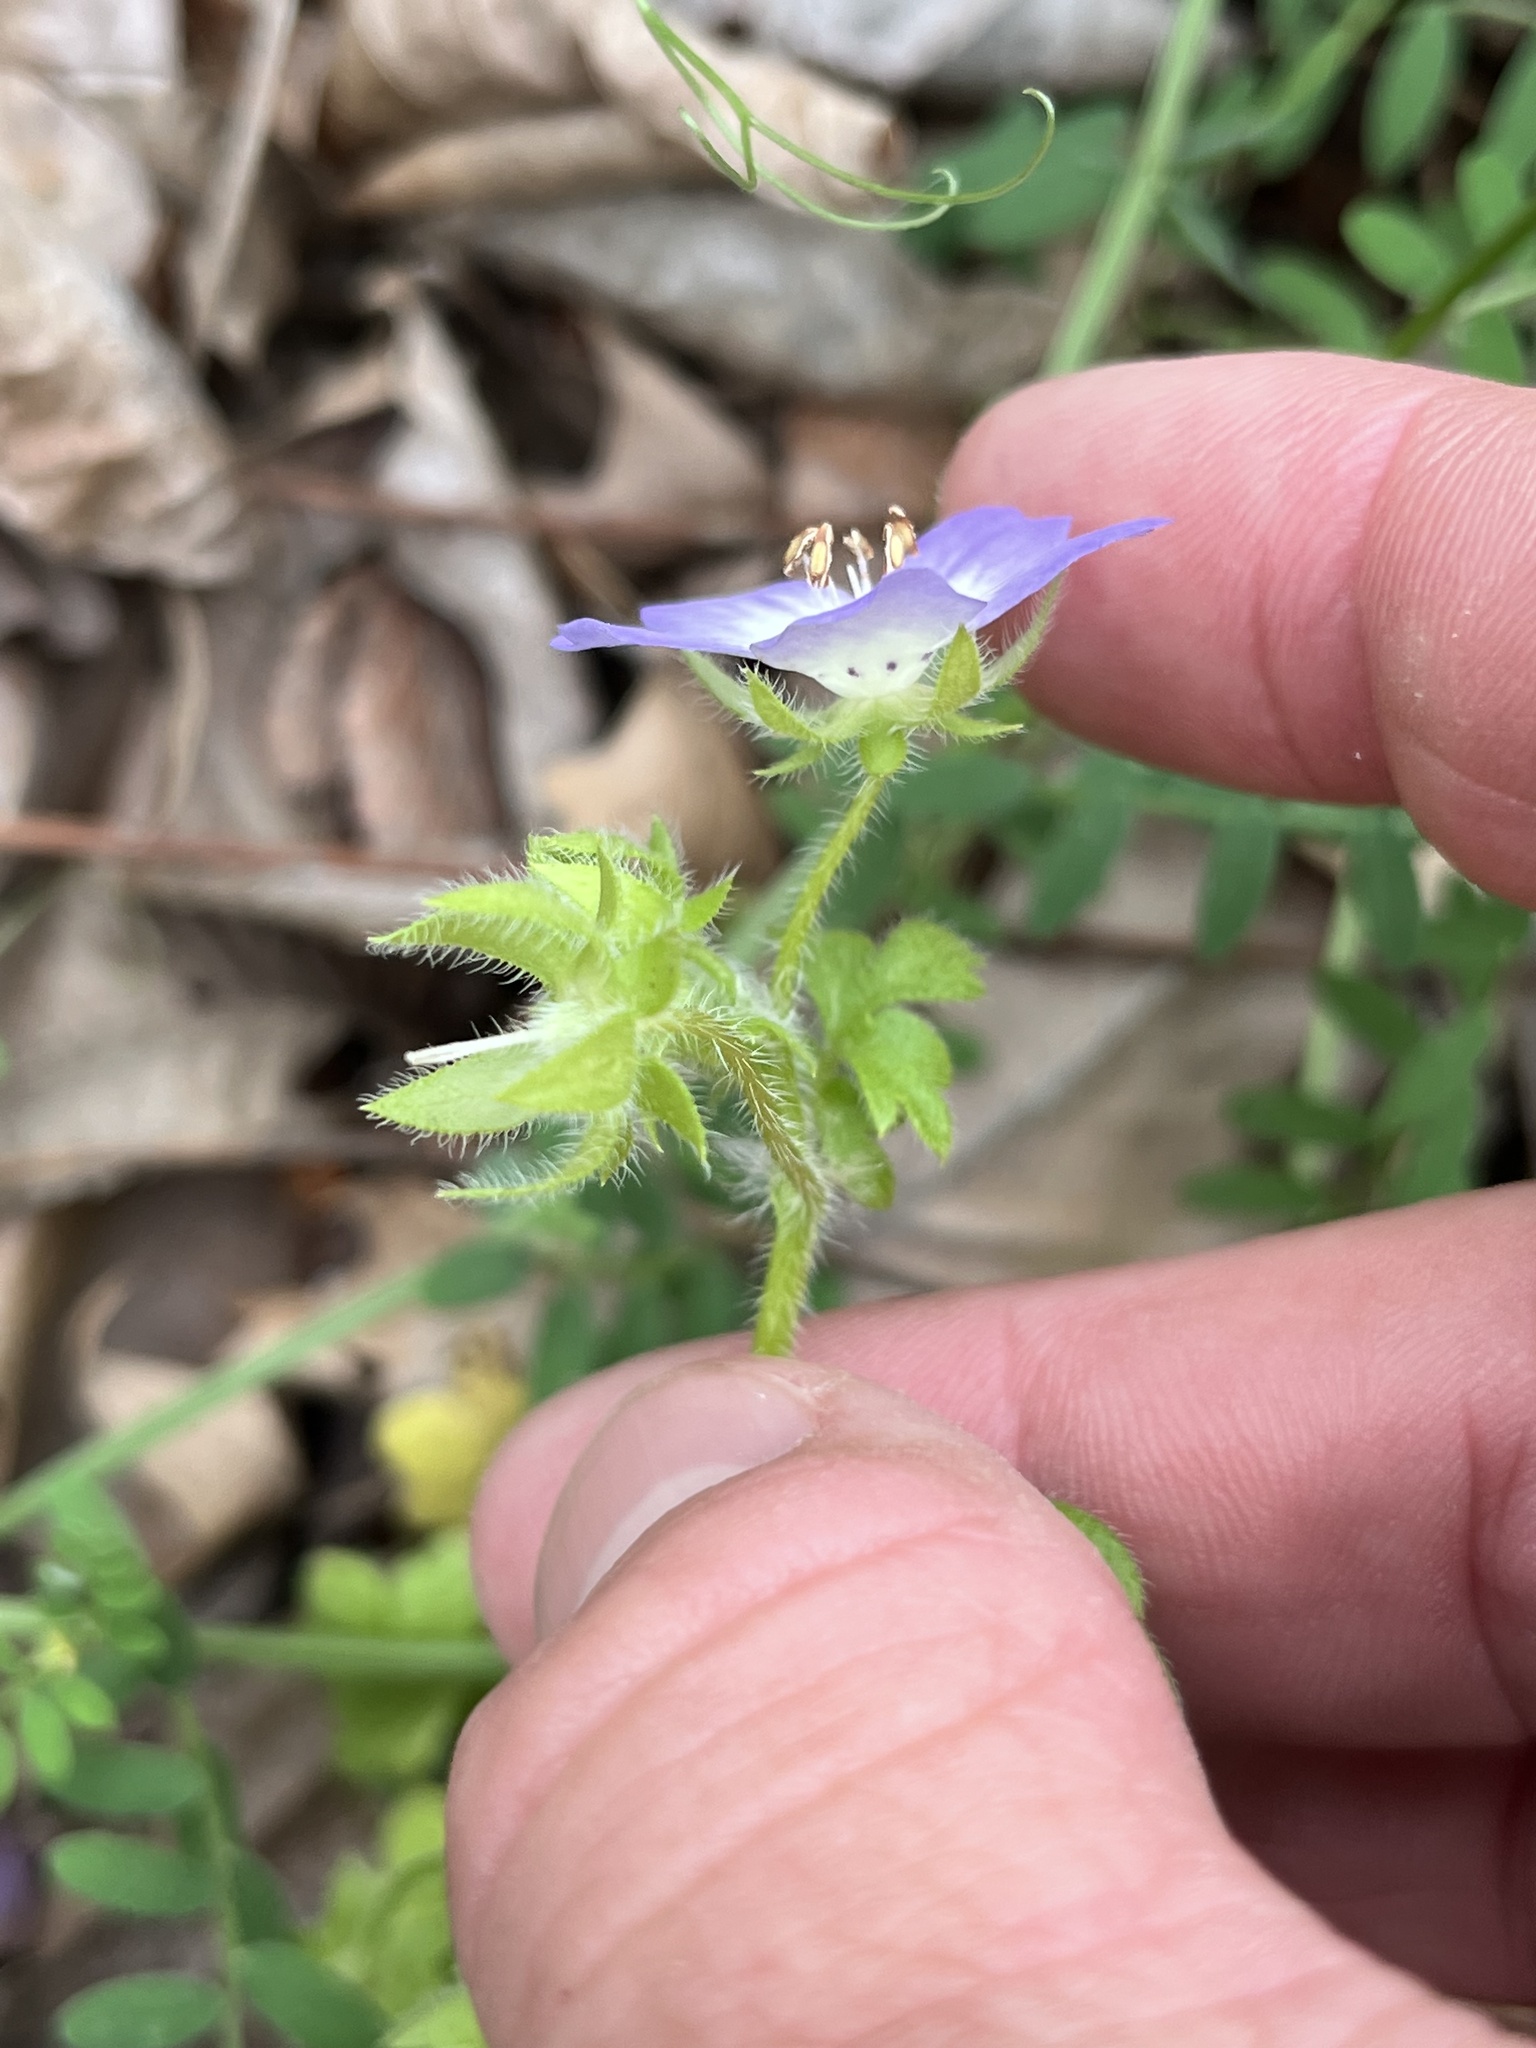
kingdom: Plantae
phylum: Tracheophyta
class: Magnoliopsida
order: Boraginales
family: Hydrophyllaceae
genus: Nemophila
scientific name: Nemophila phacelioides
